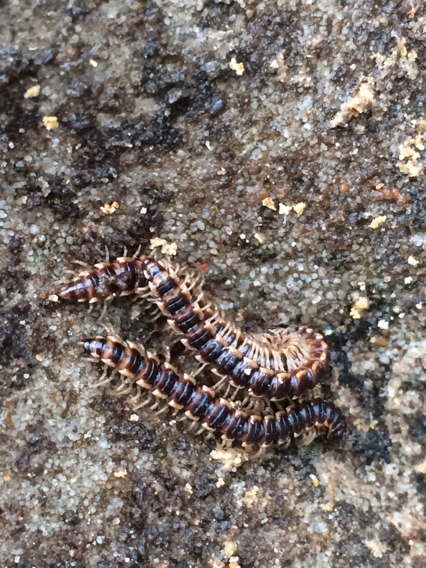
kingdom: Animalia
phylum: Arthropoda
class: Diplopoda
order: Polydesmida
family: Paradoxosomatidae
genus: Oxidus
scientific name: Oxidus gracilis
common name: Greenhouse millipede
